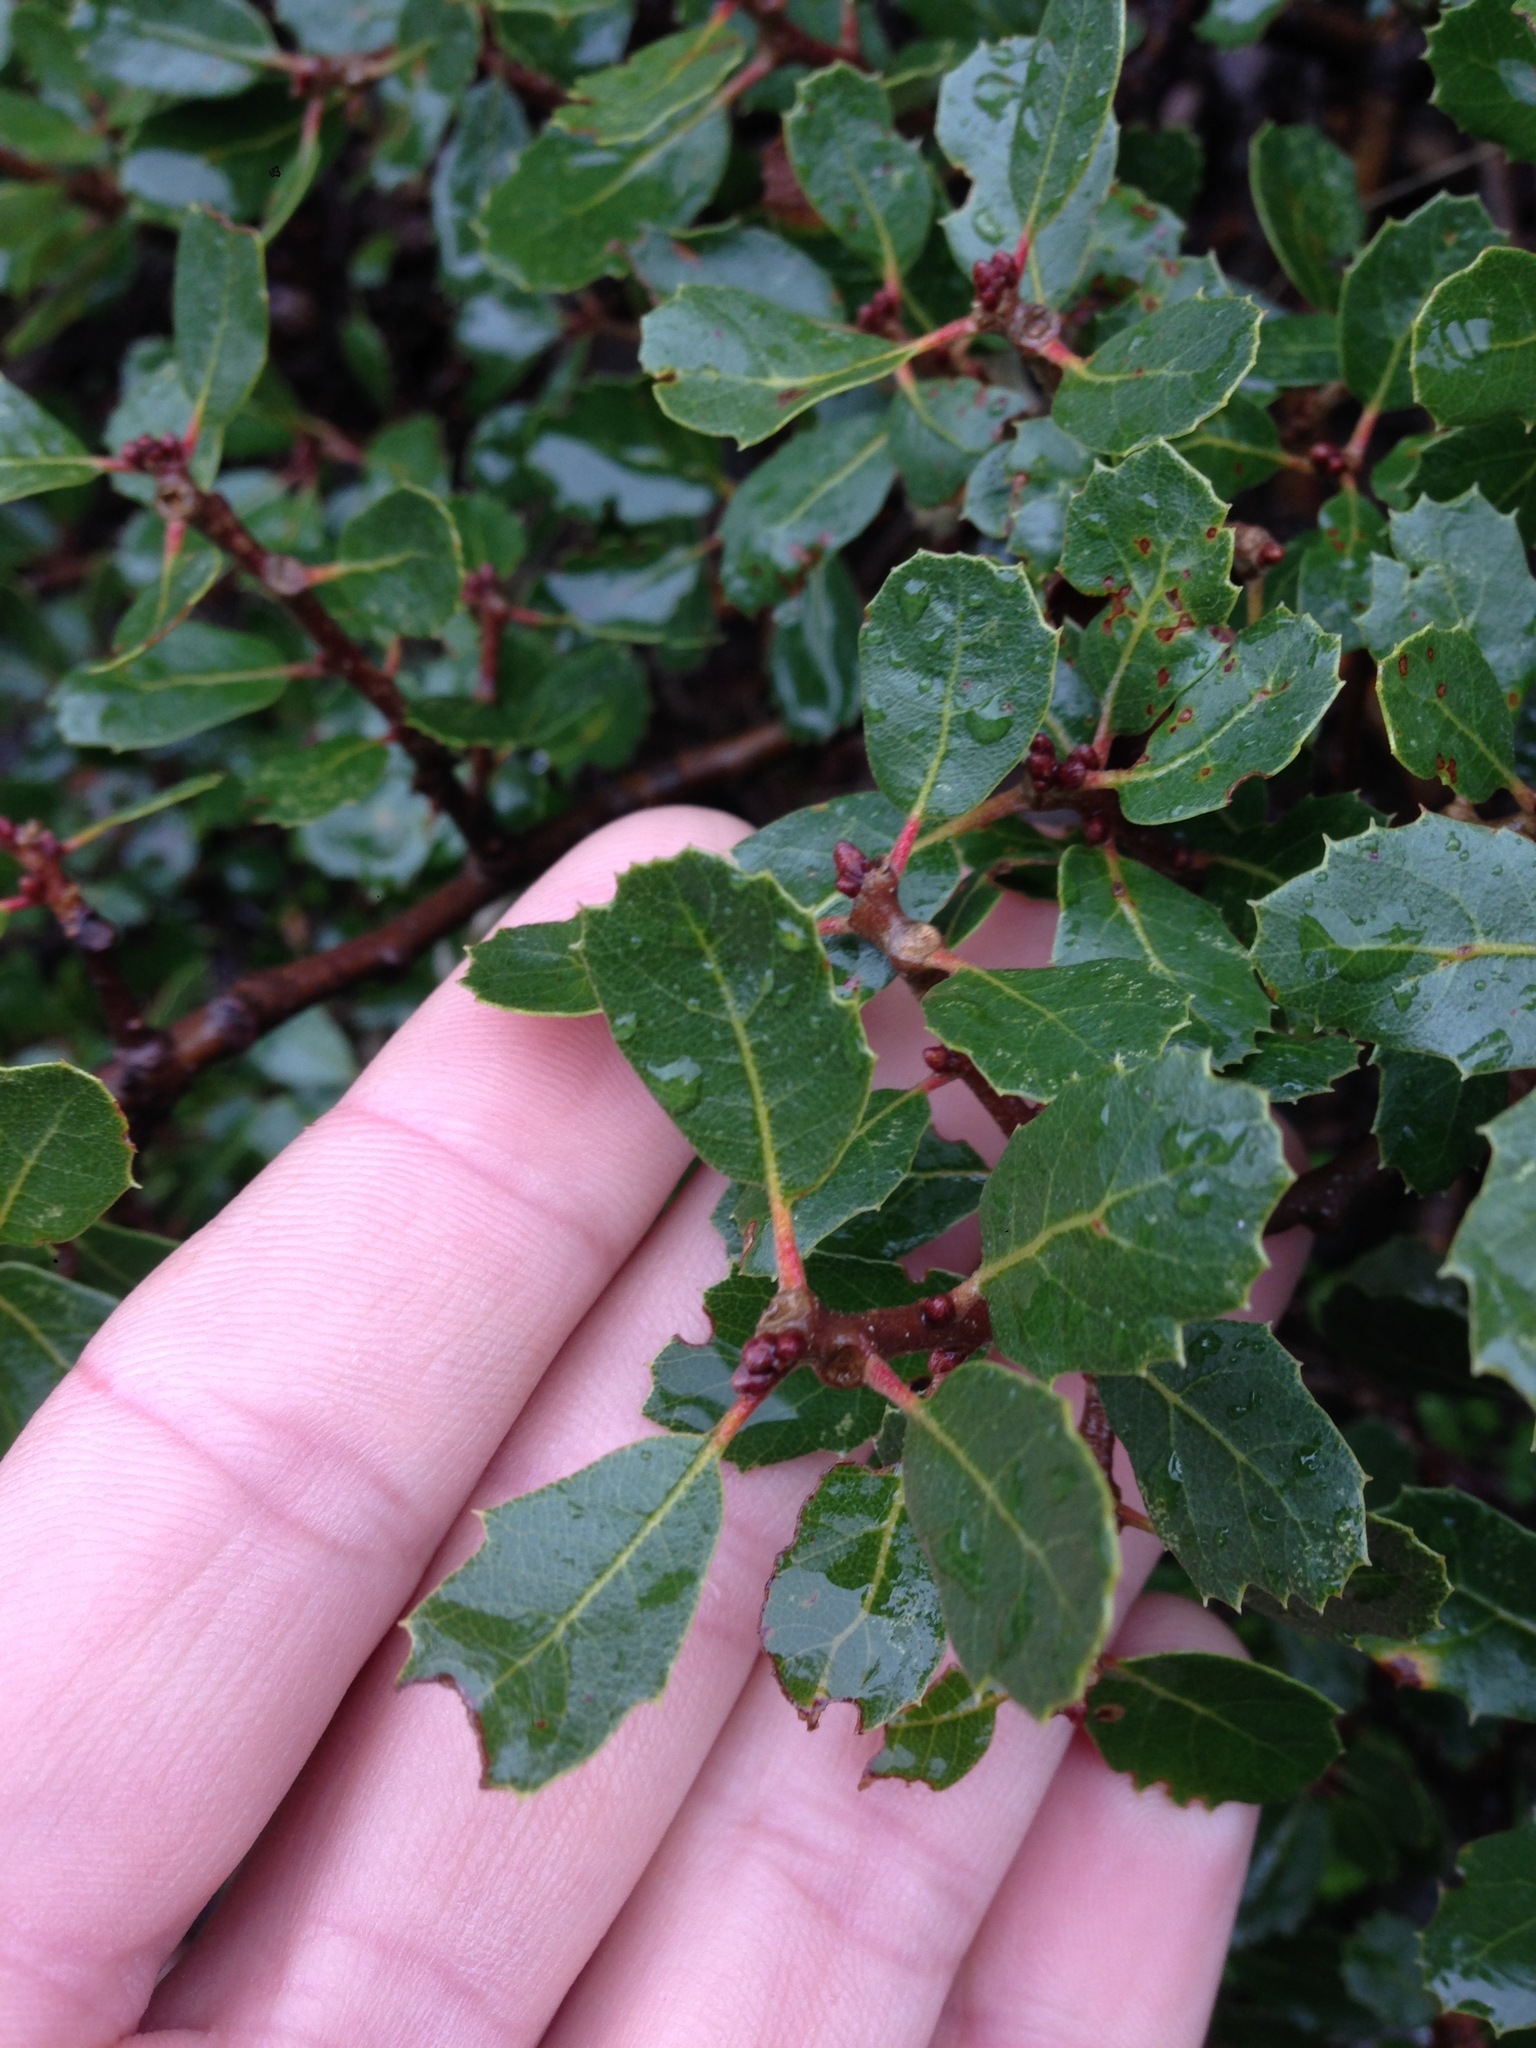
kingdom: Plantae
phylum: Tracheophyta
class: Magnoliopsida
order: Fagales
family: Fagaceae
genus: Quercus
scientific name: Quercus berberidifolia
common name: California scrub oak
